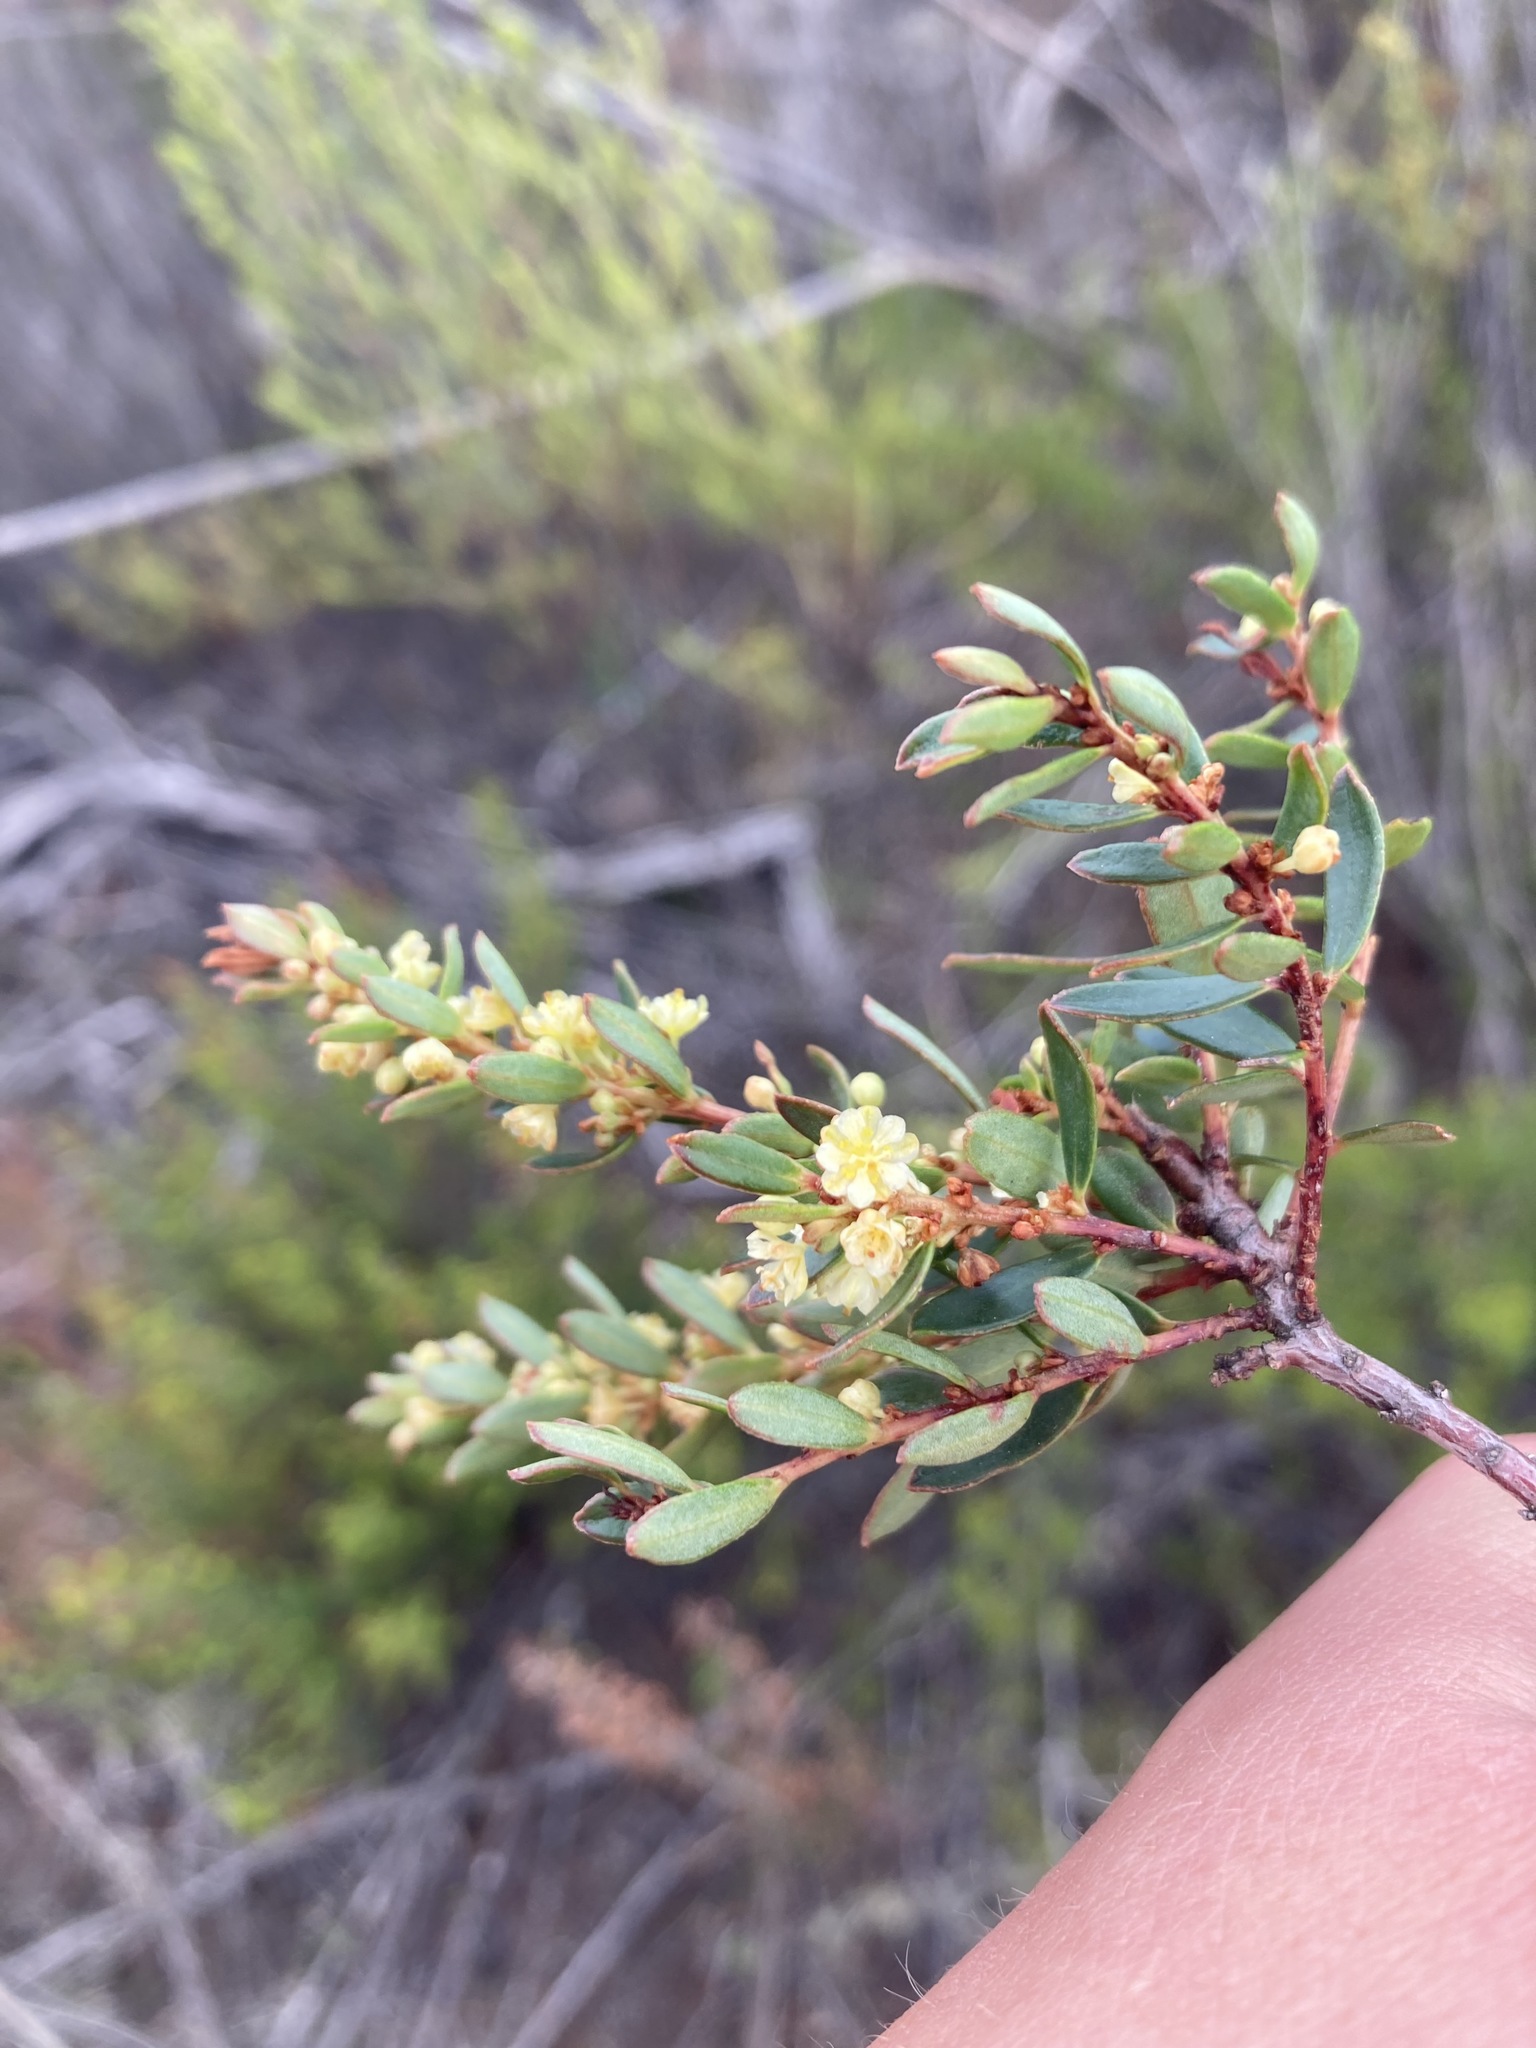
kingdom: Plantae
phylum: Tracheophyta
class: Magnoliopsida
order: Malpighiales
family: Peraceae
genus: Clutia
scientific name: Clutia alaternoides
